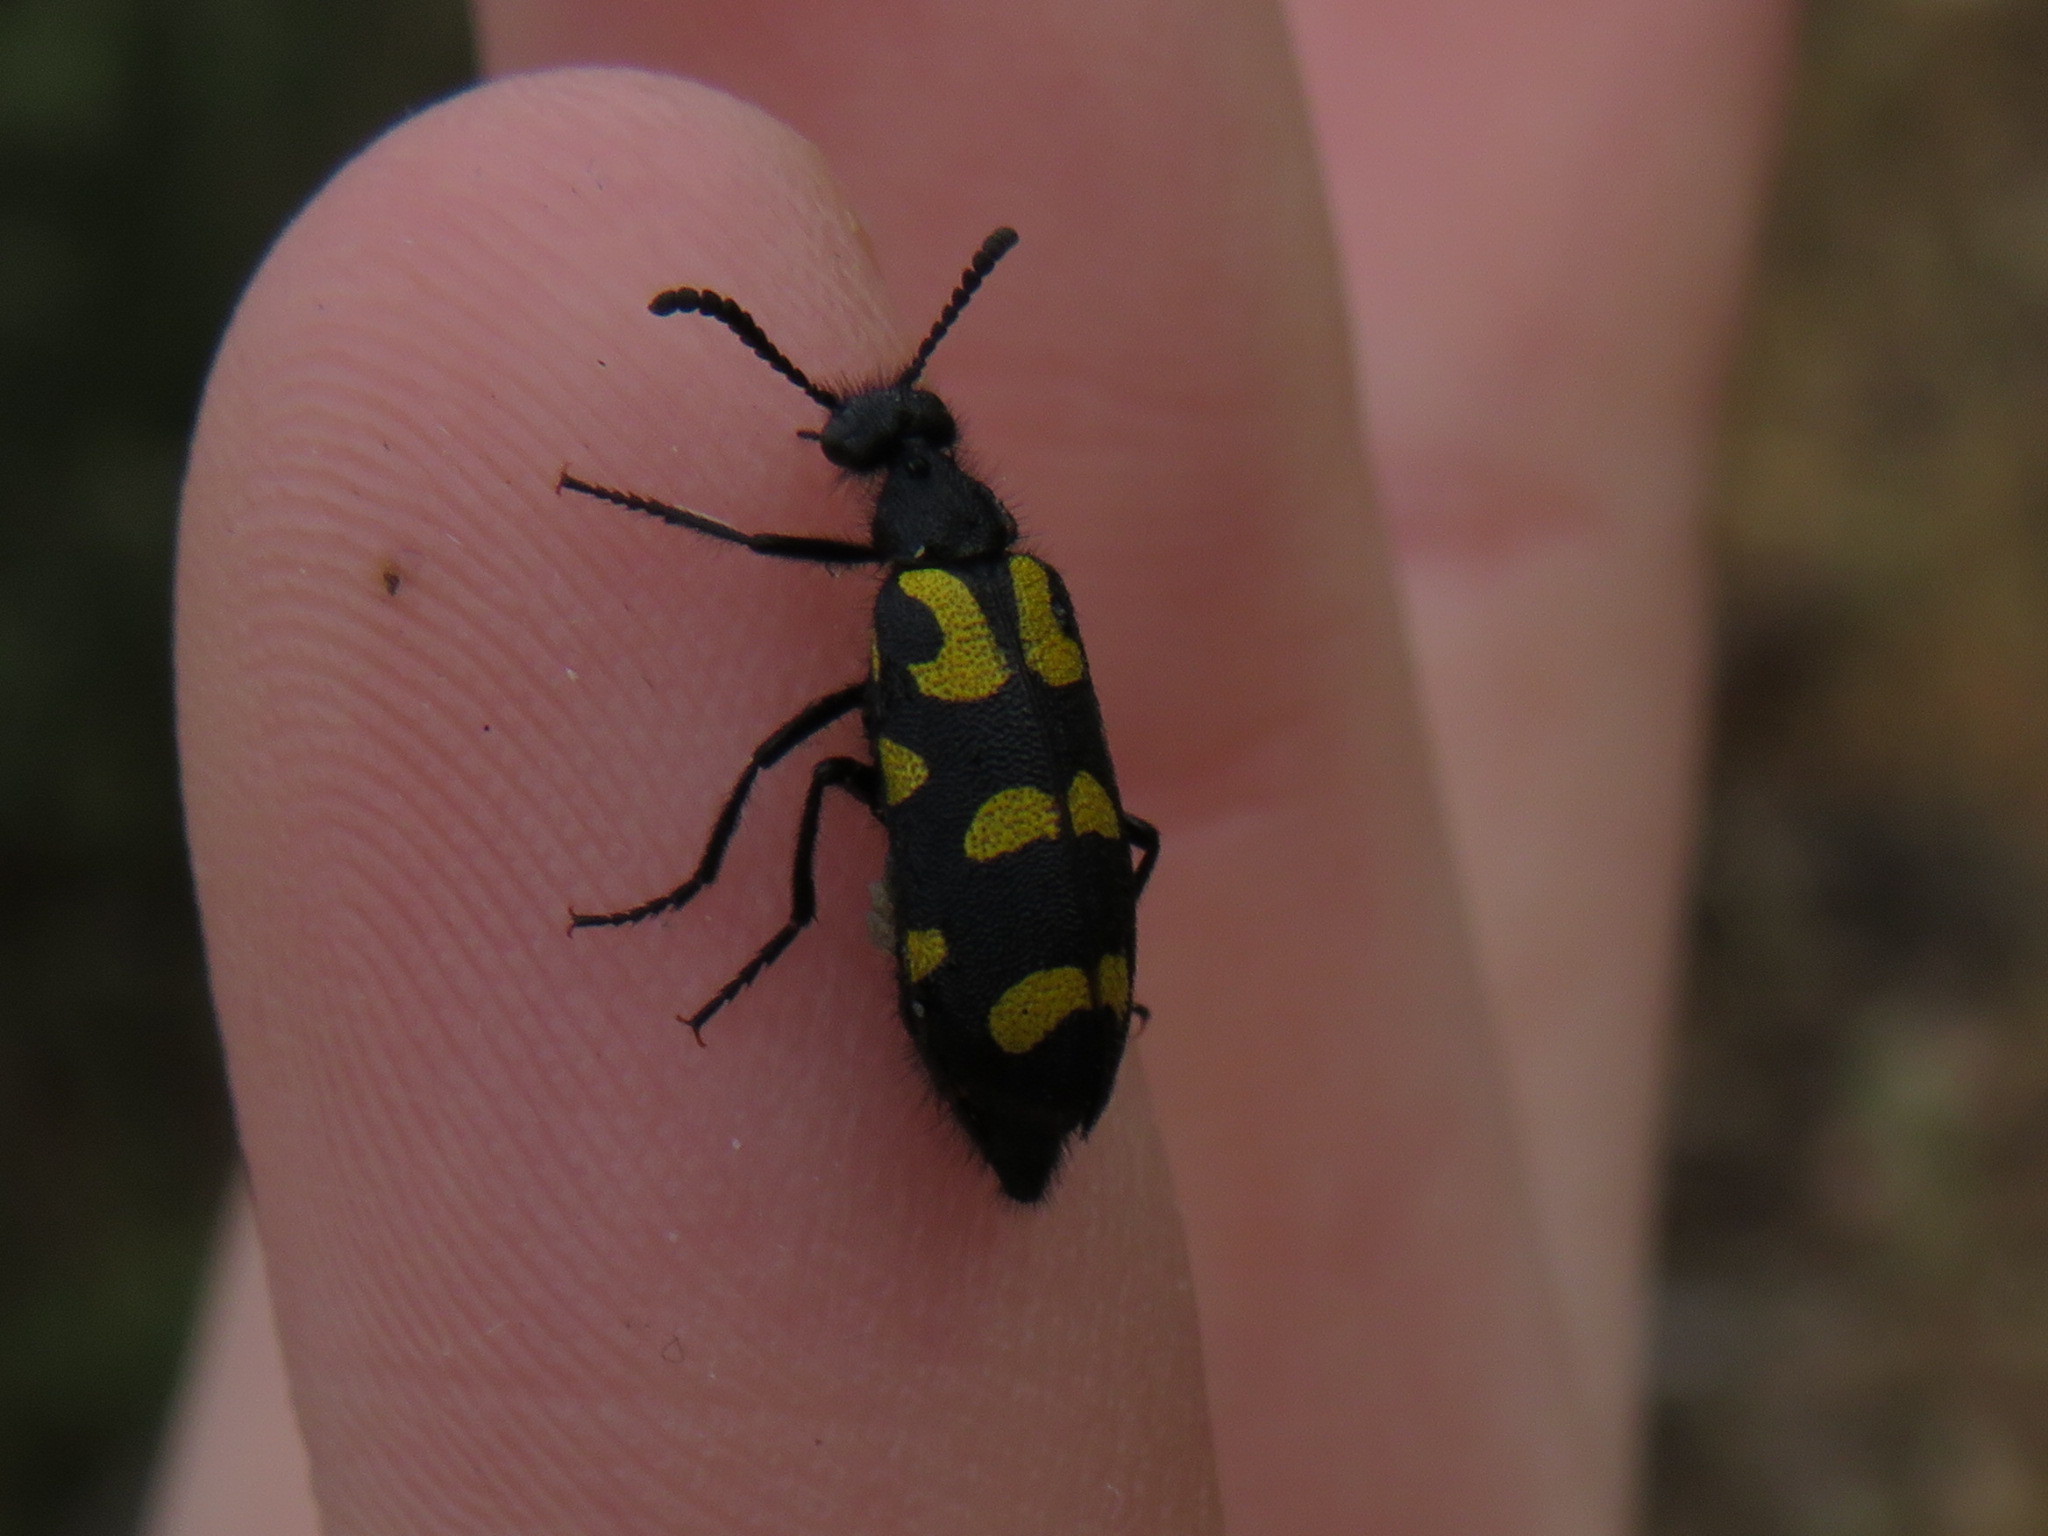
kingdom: Animalia
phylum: Arthropoda
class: Insecta
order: Coleoptera
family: Meloidae
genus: Ceroctis
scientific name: Ceroctis capensis
